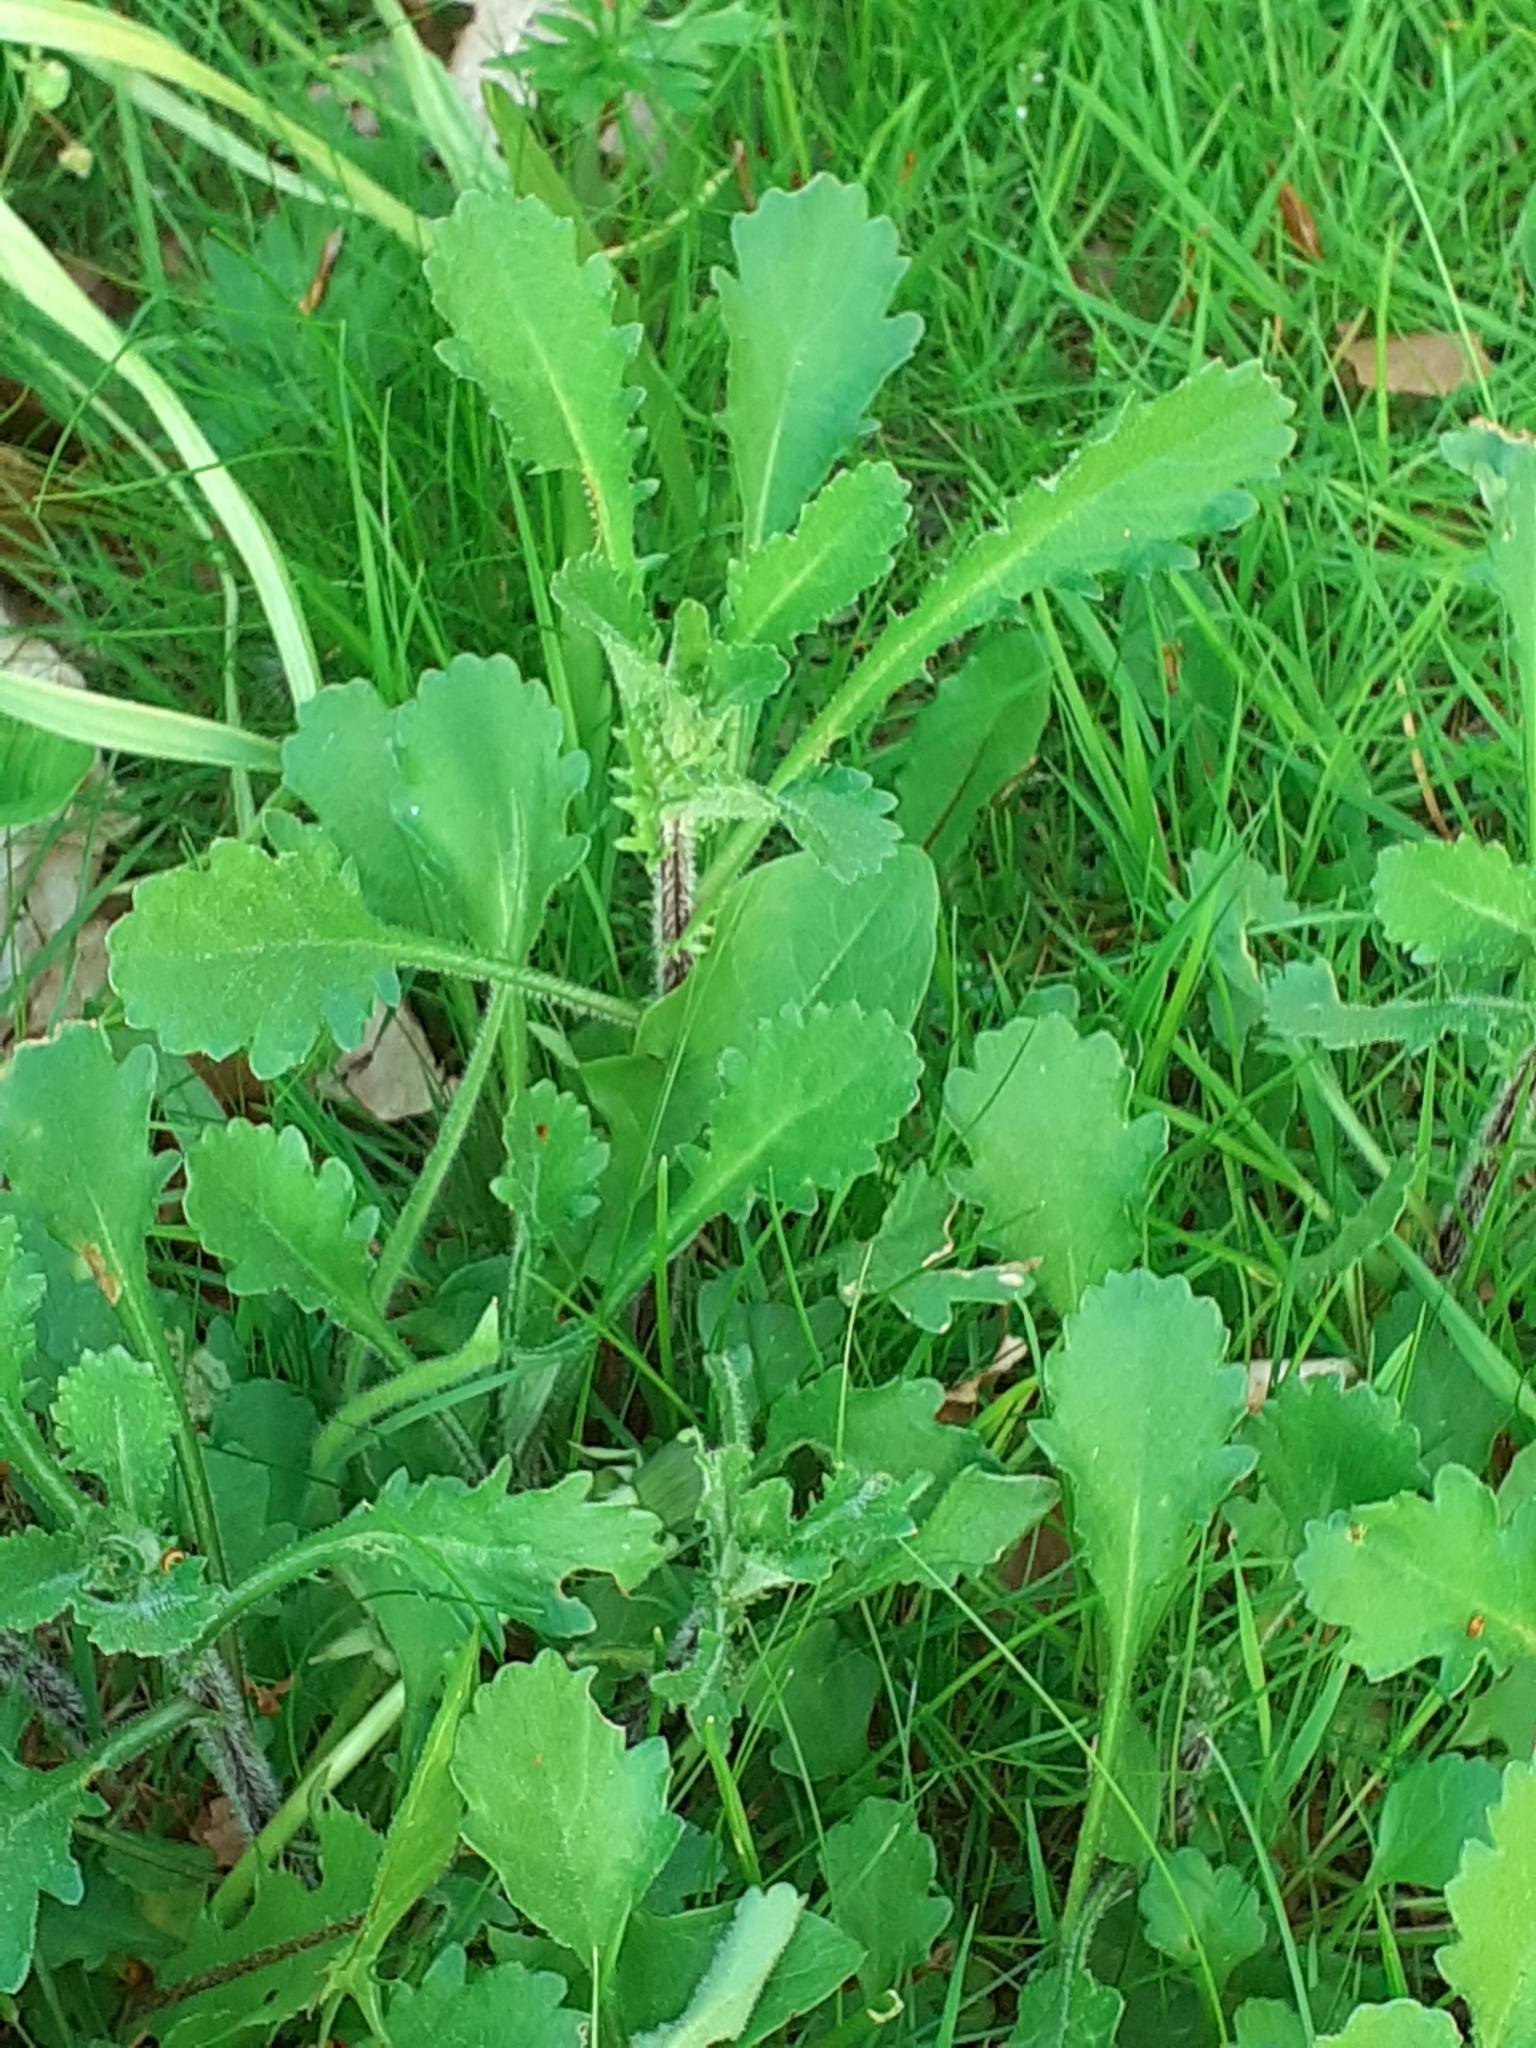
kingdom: Plantae
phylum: Tracheophyta
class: Magnoliopsida
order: Asterales
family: Asteraceae
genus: Leucanthemum
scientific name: Leucanthemum vulgare
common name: Oxeye daisy
